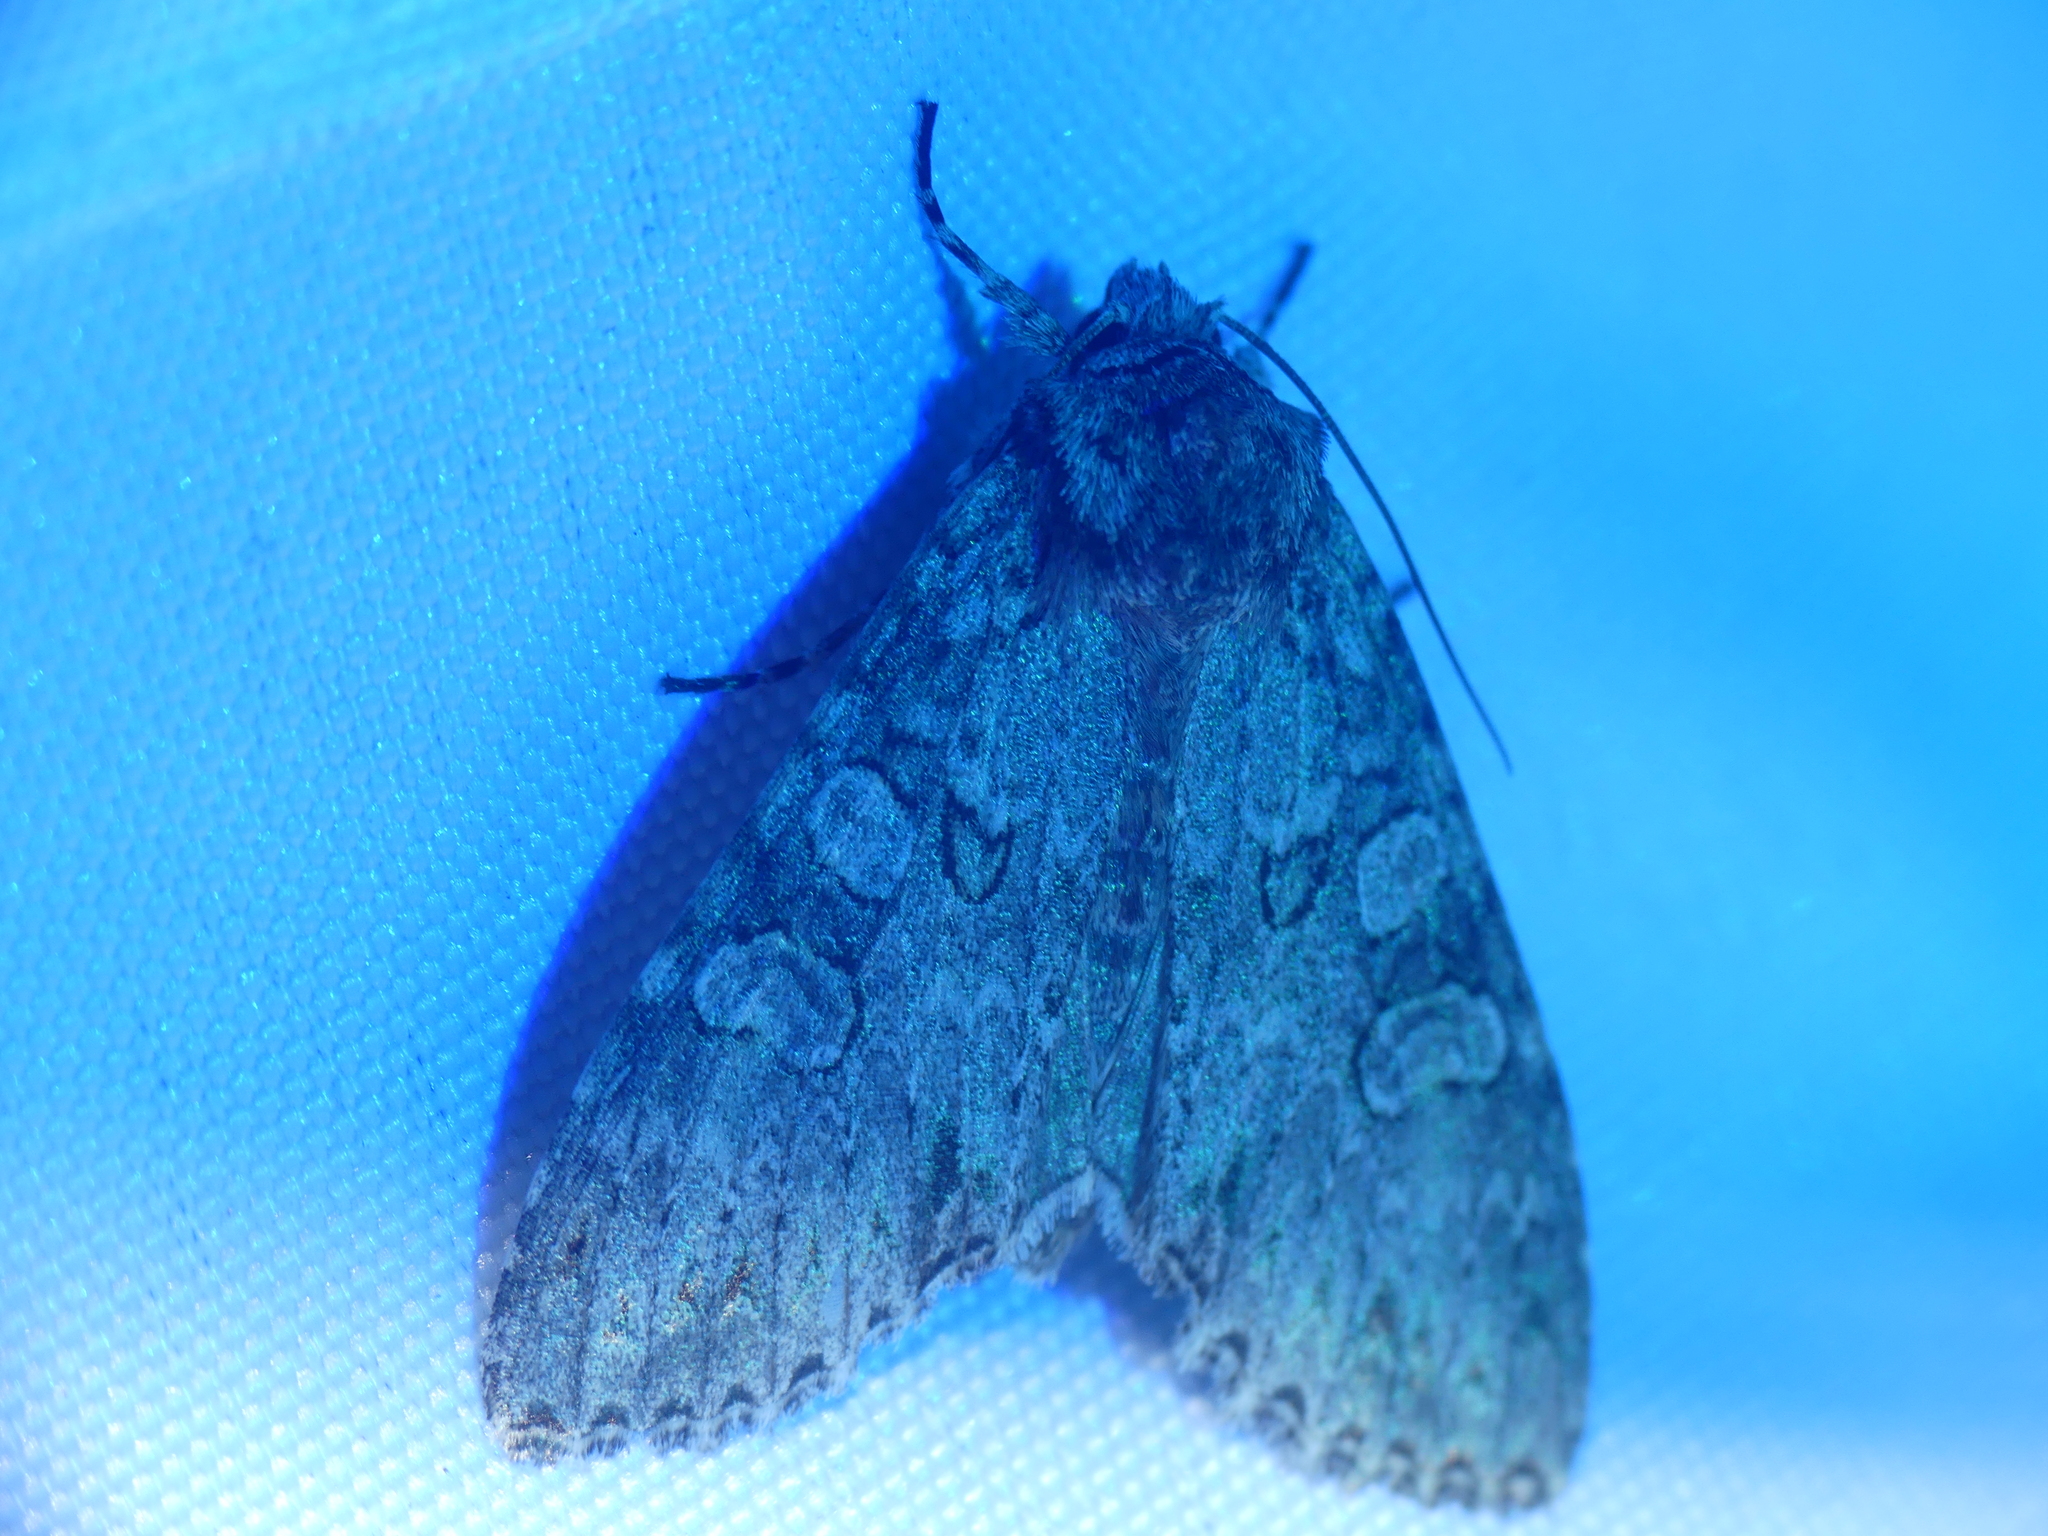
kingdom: Animalia
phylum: Arthropoda
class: Insecta
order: Lepidoptera
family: Noctuidae
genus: Polia
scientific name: Polia nebulosa
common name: Grey arches
